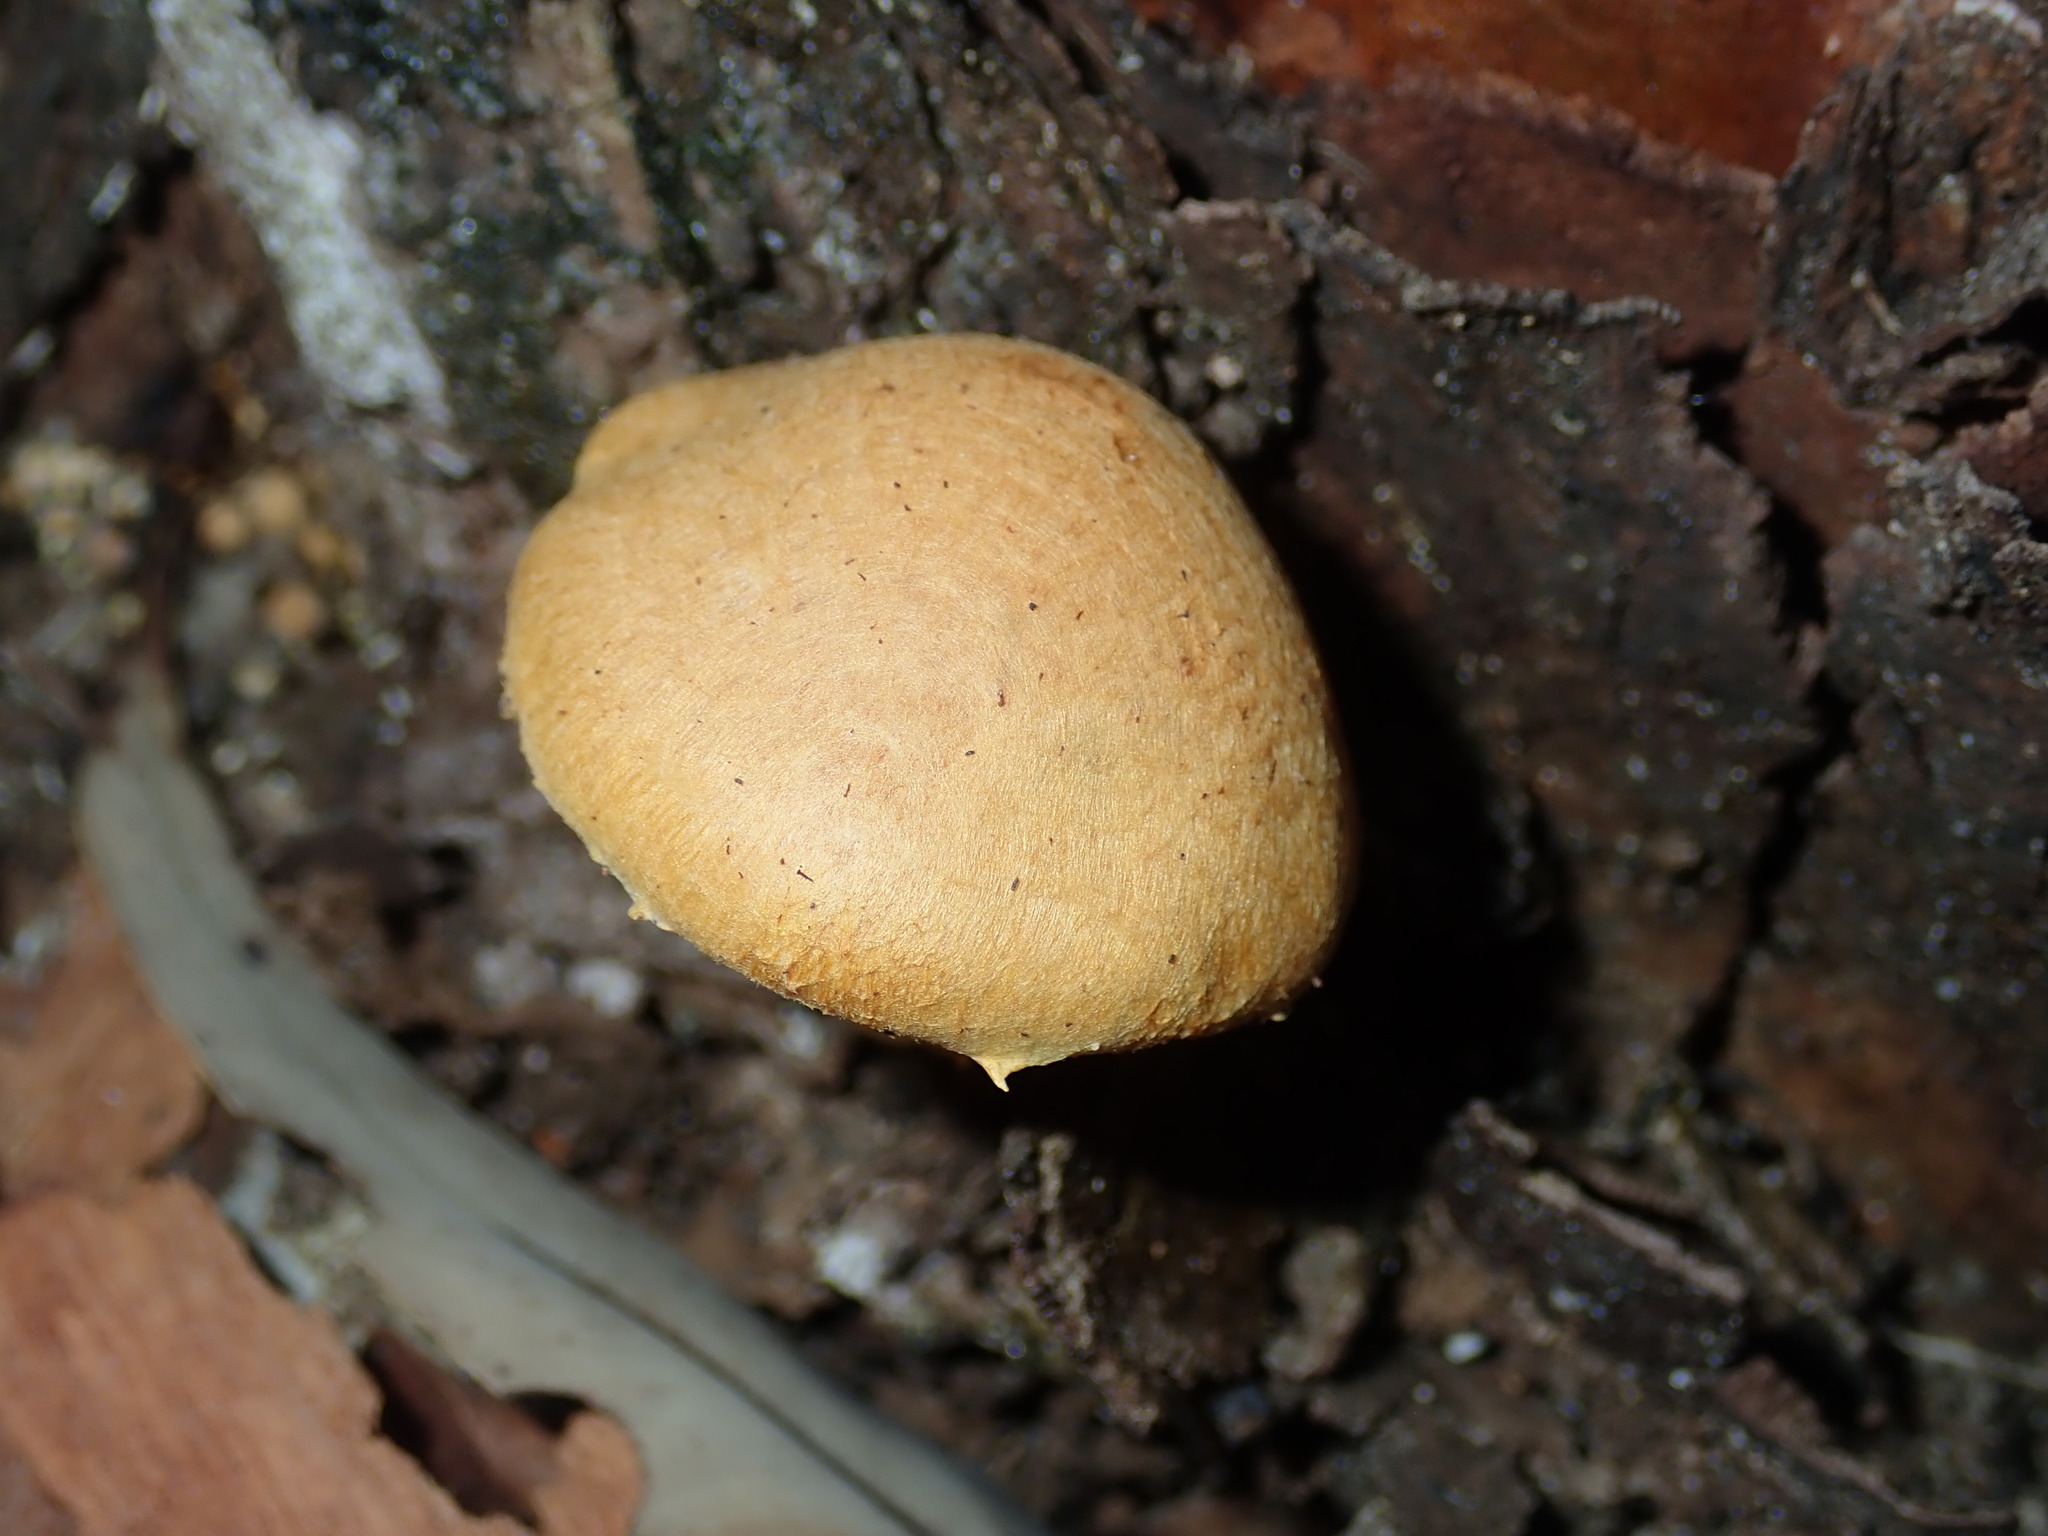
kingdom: Fungi
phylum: Basidiomycota
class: Agaricomycetes
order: Agaricales
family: Hymenogastraceae
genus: Gymnopilus
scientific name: Gymnopilus junonius
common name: Spectacular rustgill
